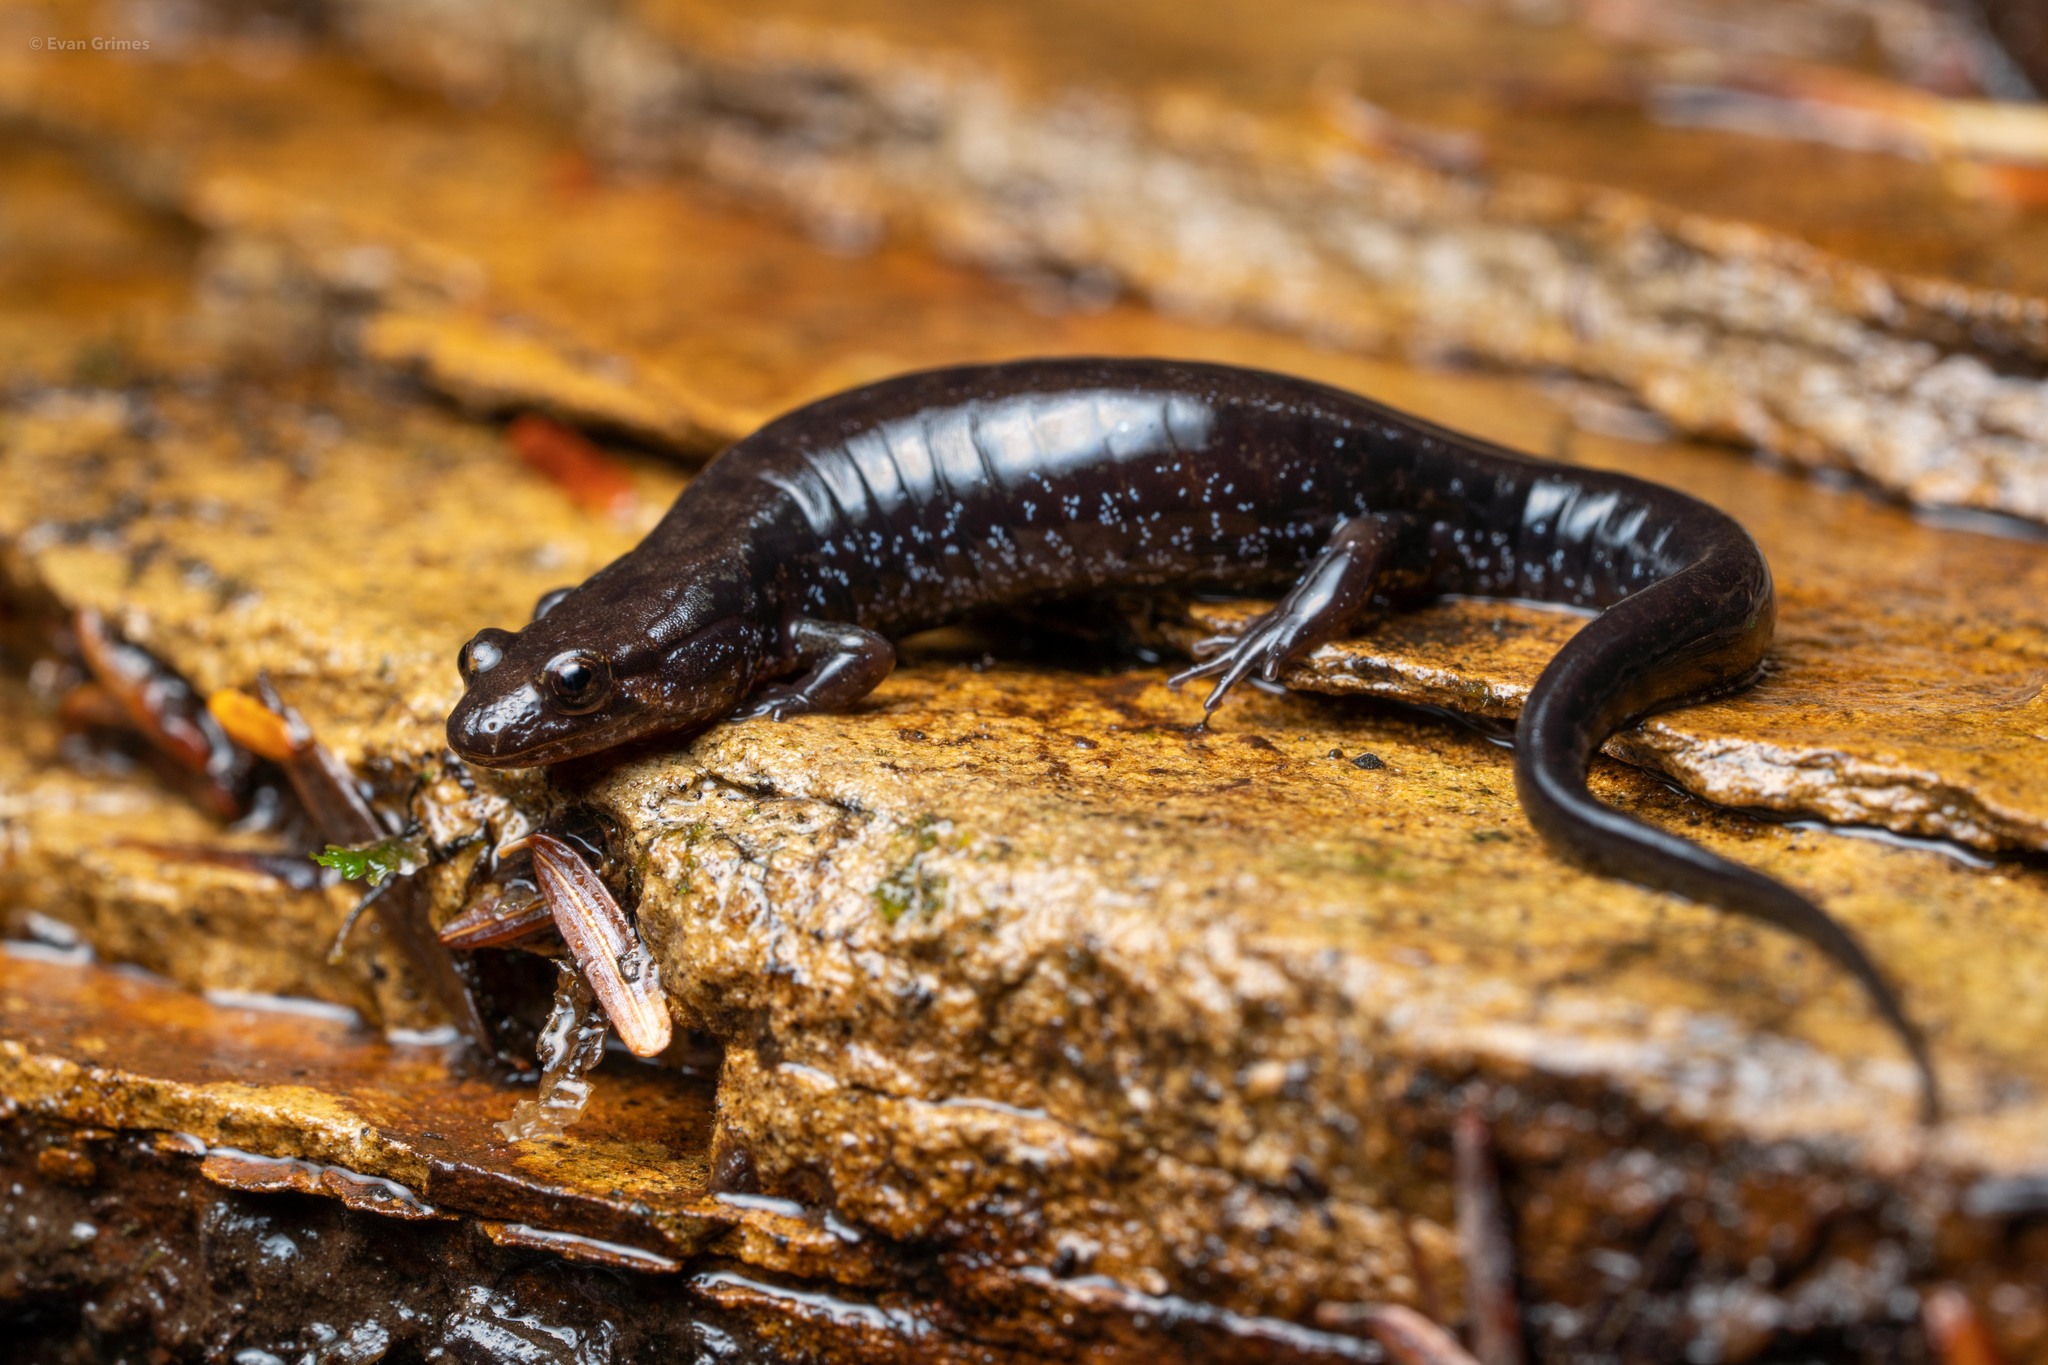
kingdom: Animalia
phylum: Chordata
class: Amphibia
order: Caudata
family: Plethodontidae
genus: Desmognathus
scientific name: Desmognathus ochrophaeus
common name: Allegheny mountain dusky salamander
